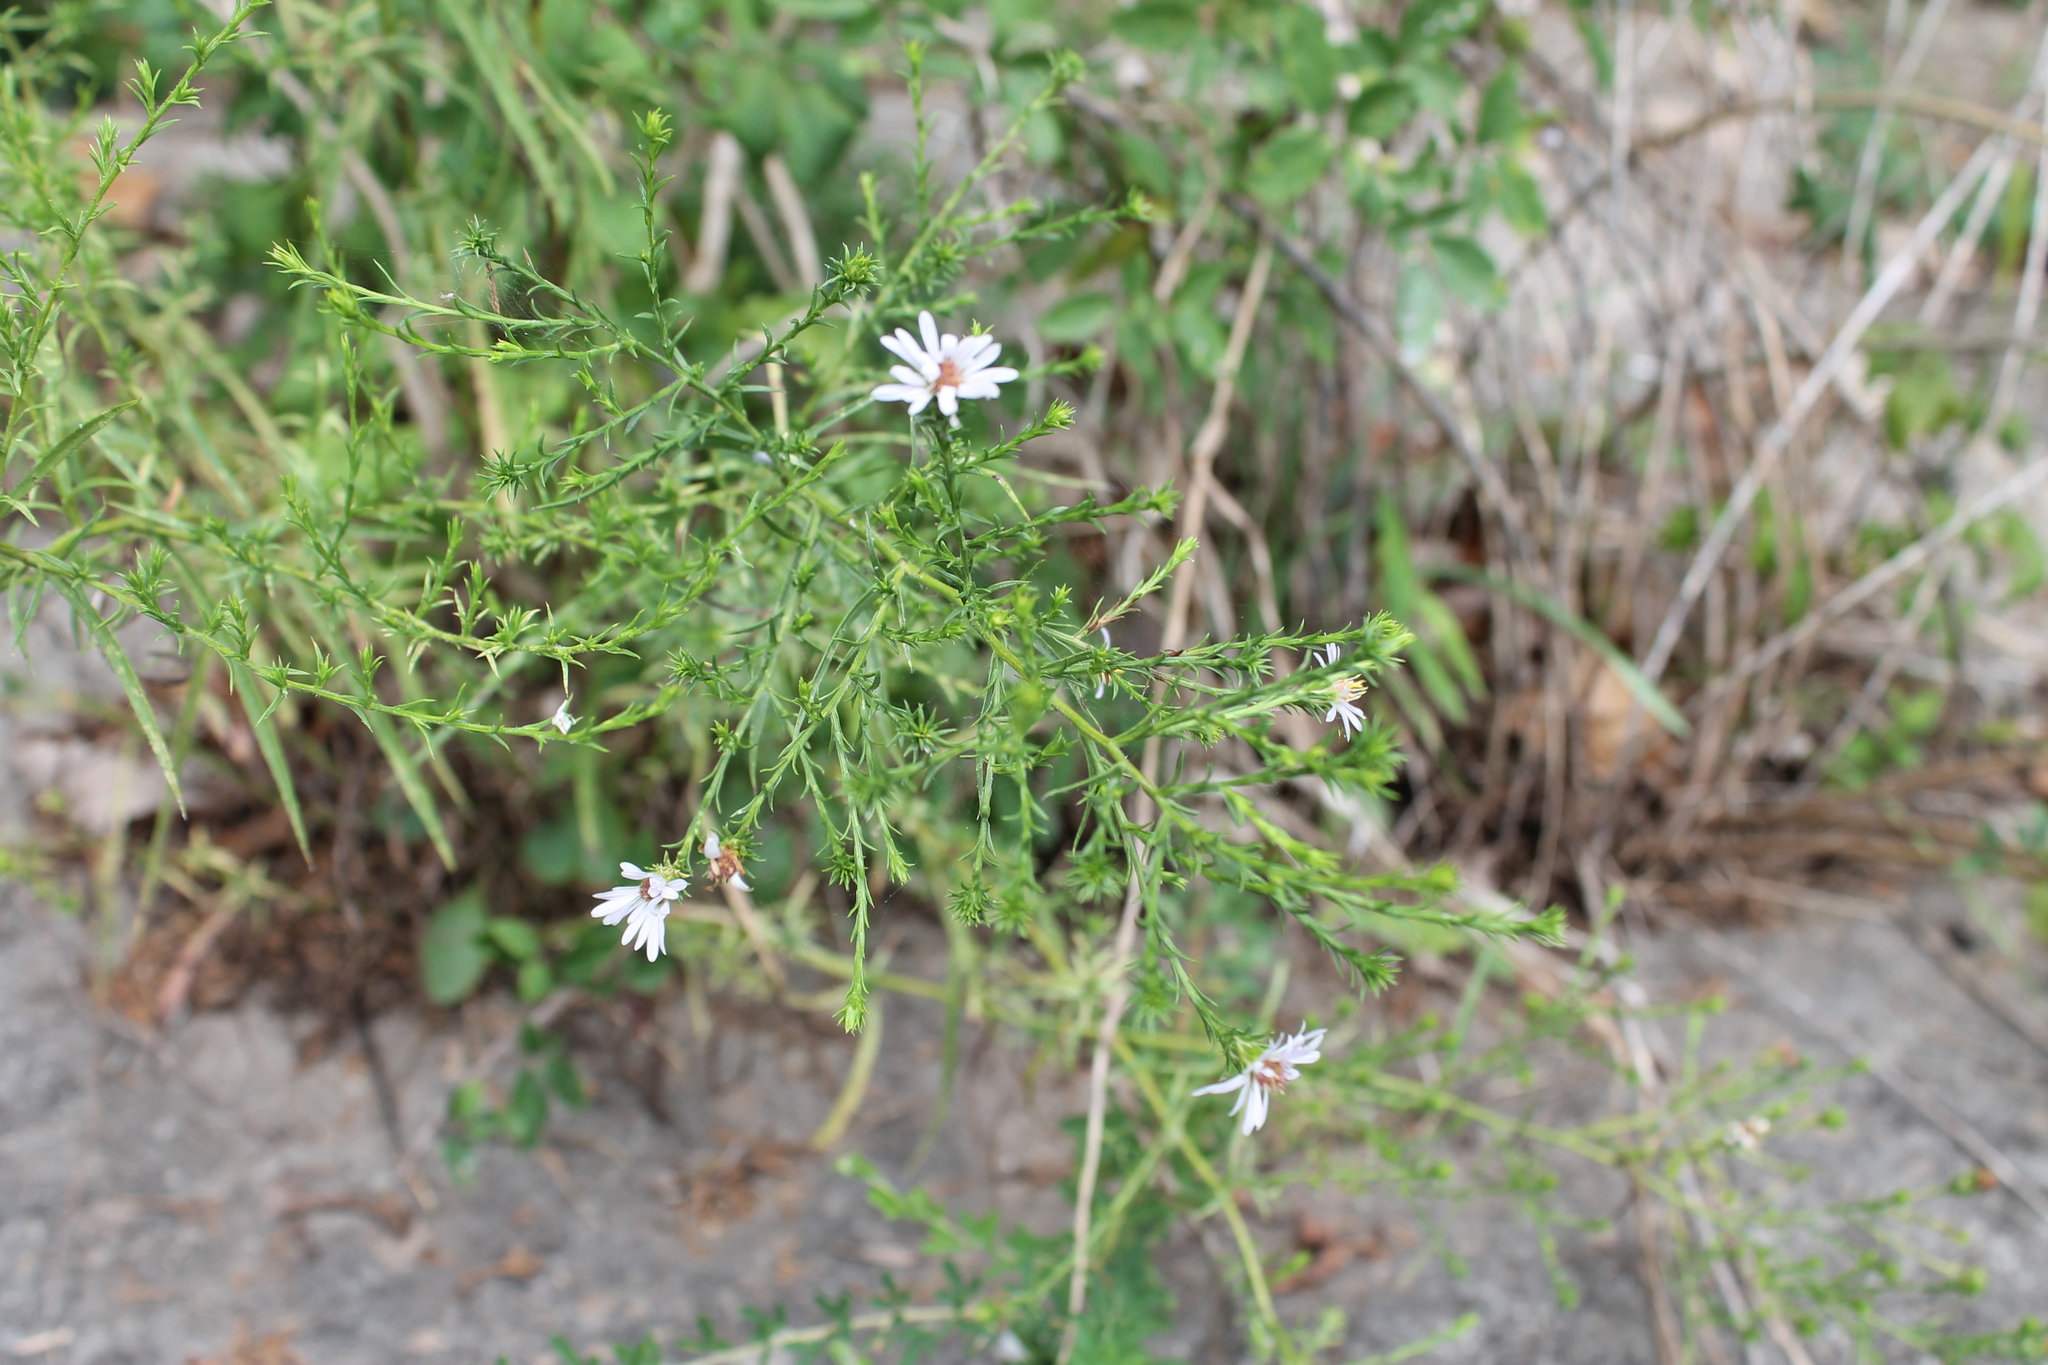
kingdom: Plantae
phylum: Tracheophyta
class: Magnoliopsida
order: Asterales
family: Asteraceae
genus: Symphyotrichum
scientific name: Symphyotrichum priceae
